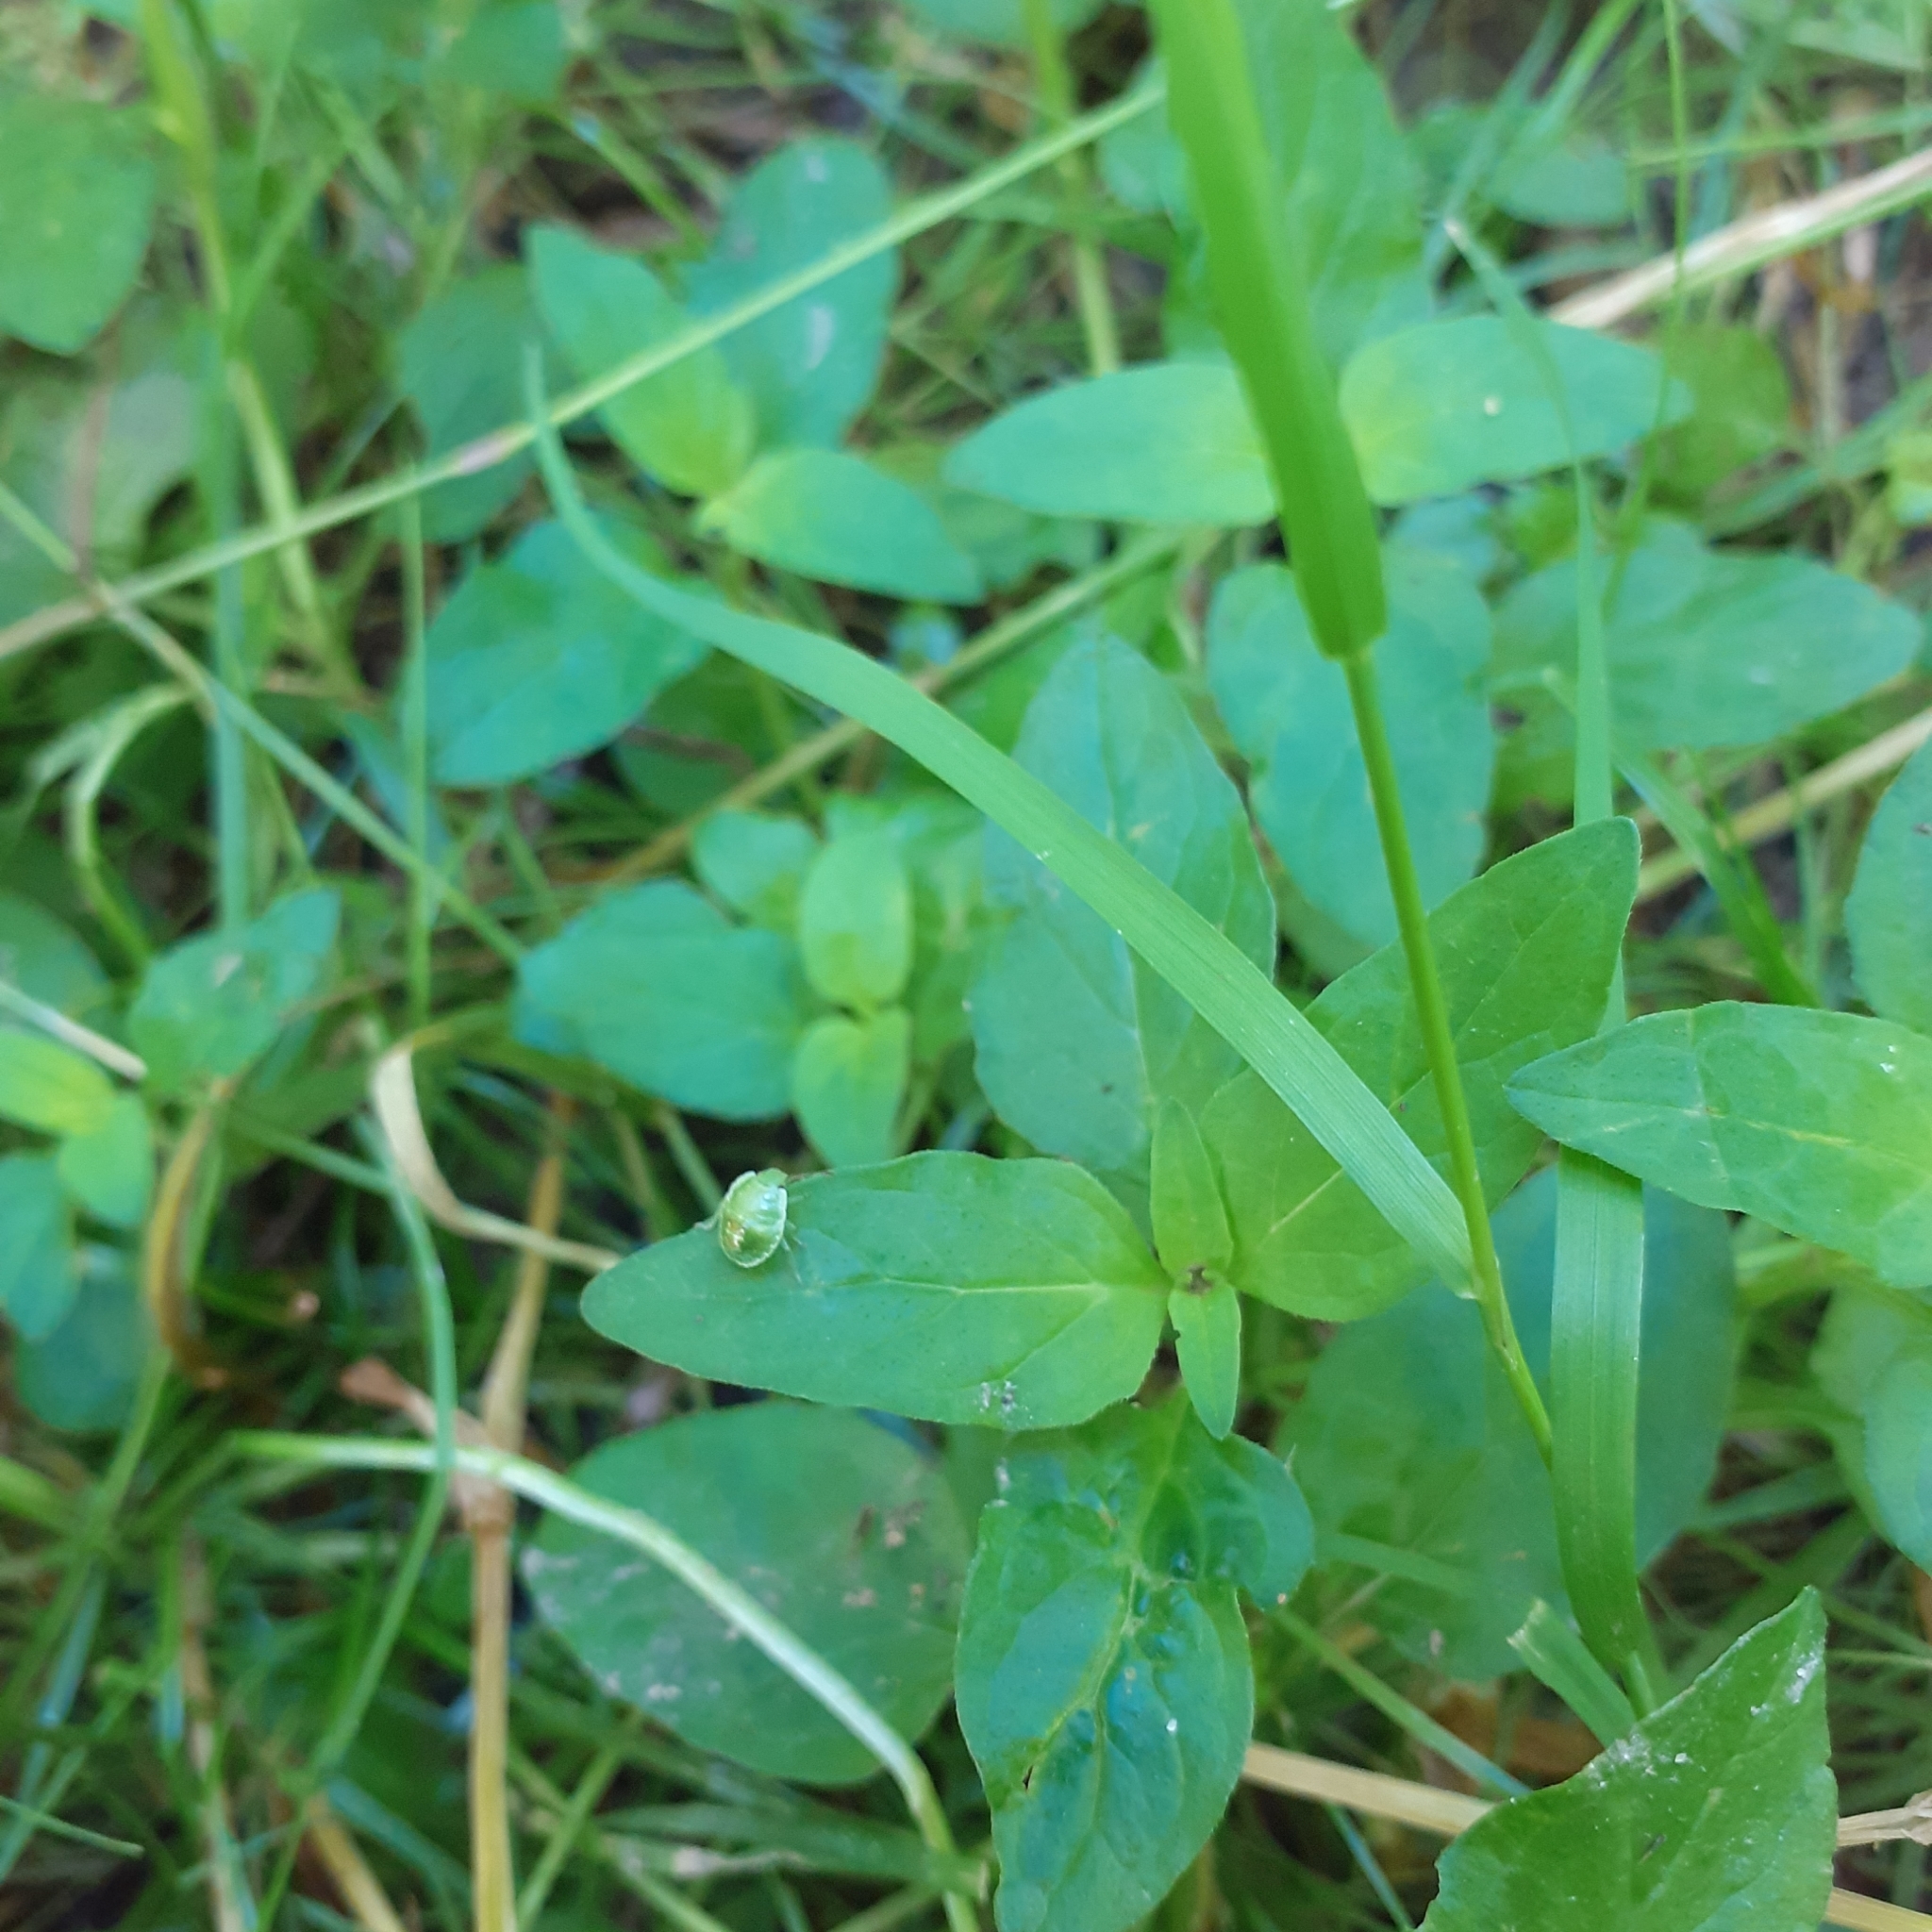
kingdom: Plantae
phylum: Tracheophyta
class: Magnoliopsida
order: Lamiales
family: Lamiaceae
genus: Prunella
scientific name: Prunella vulgaris
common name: Heal-all
